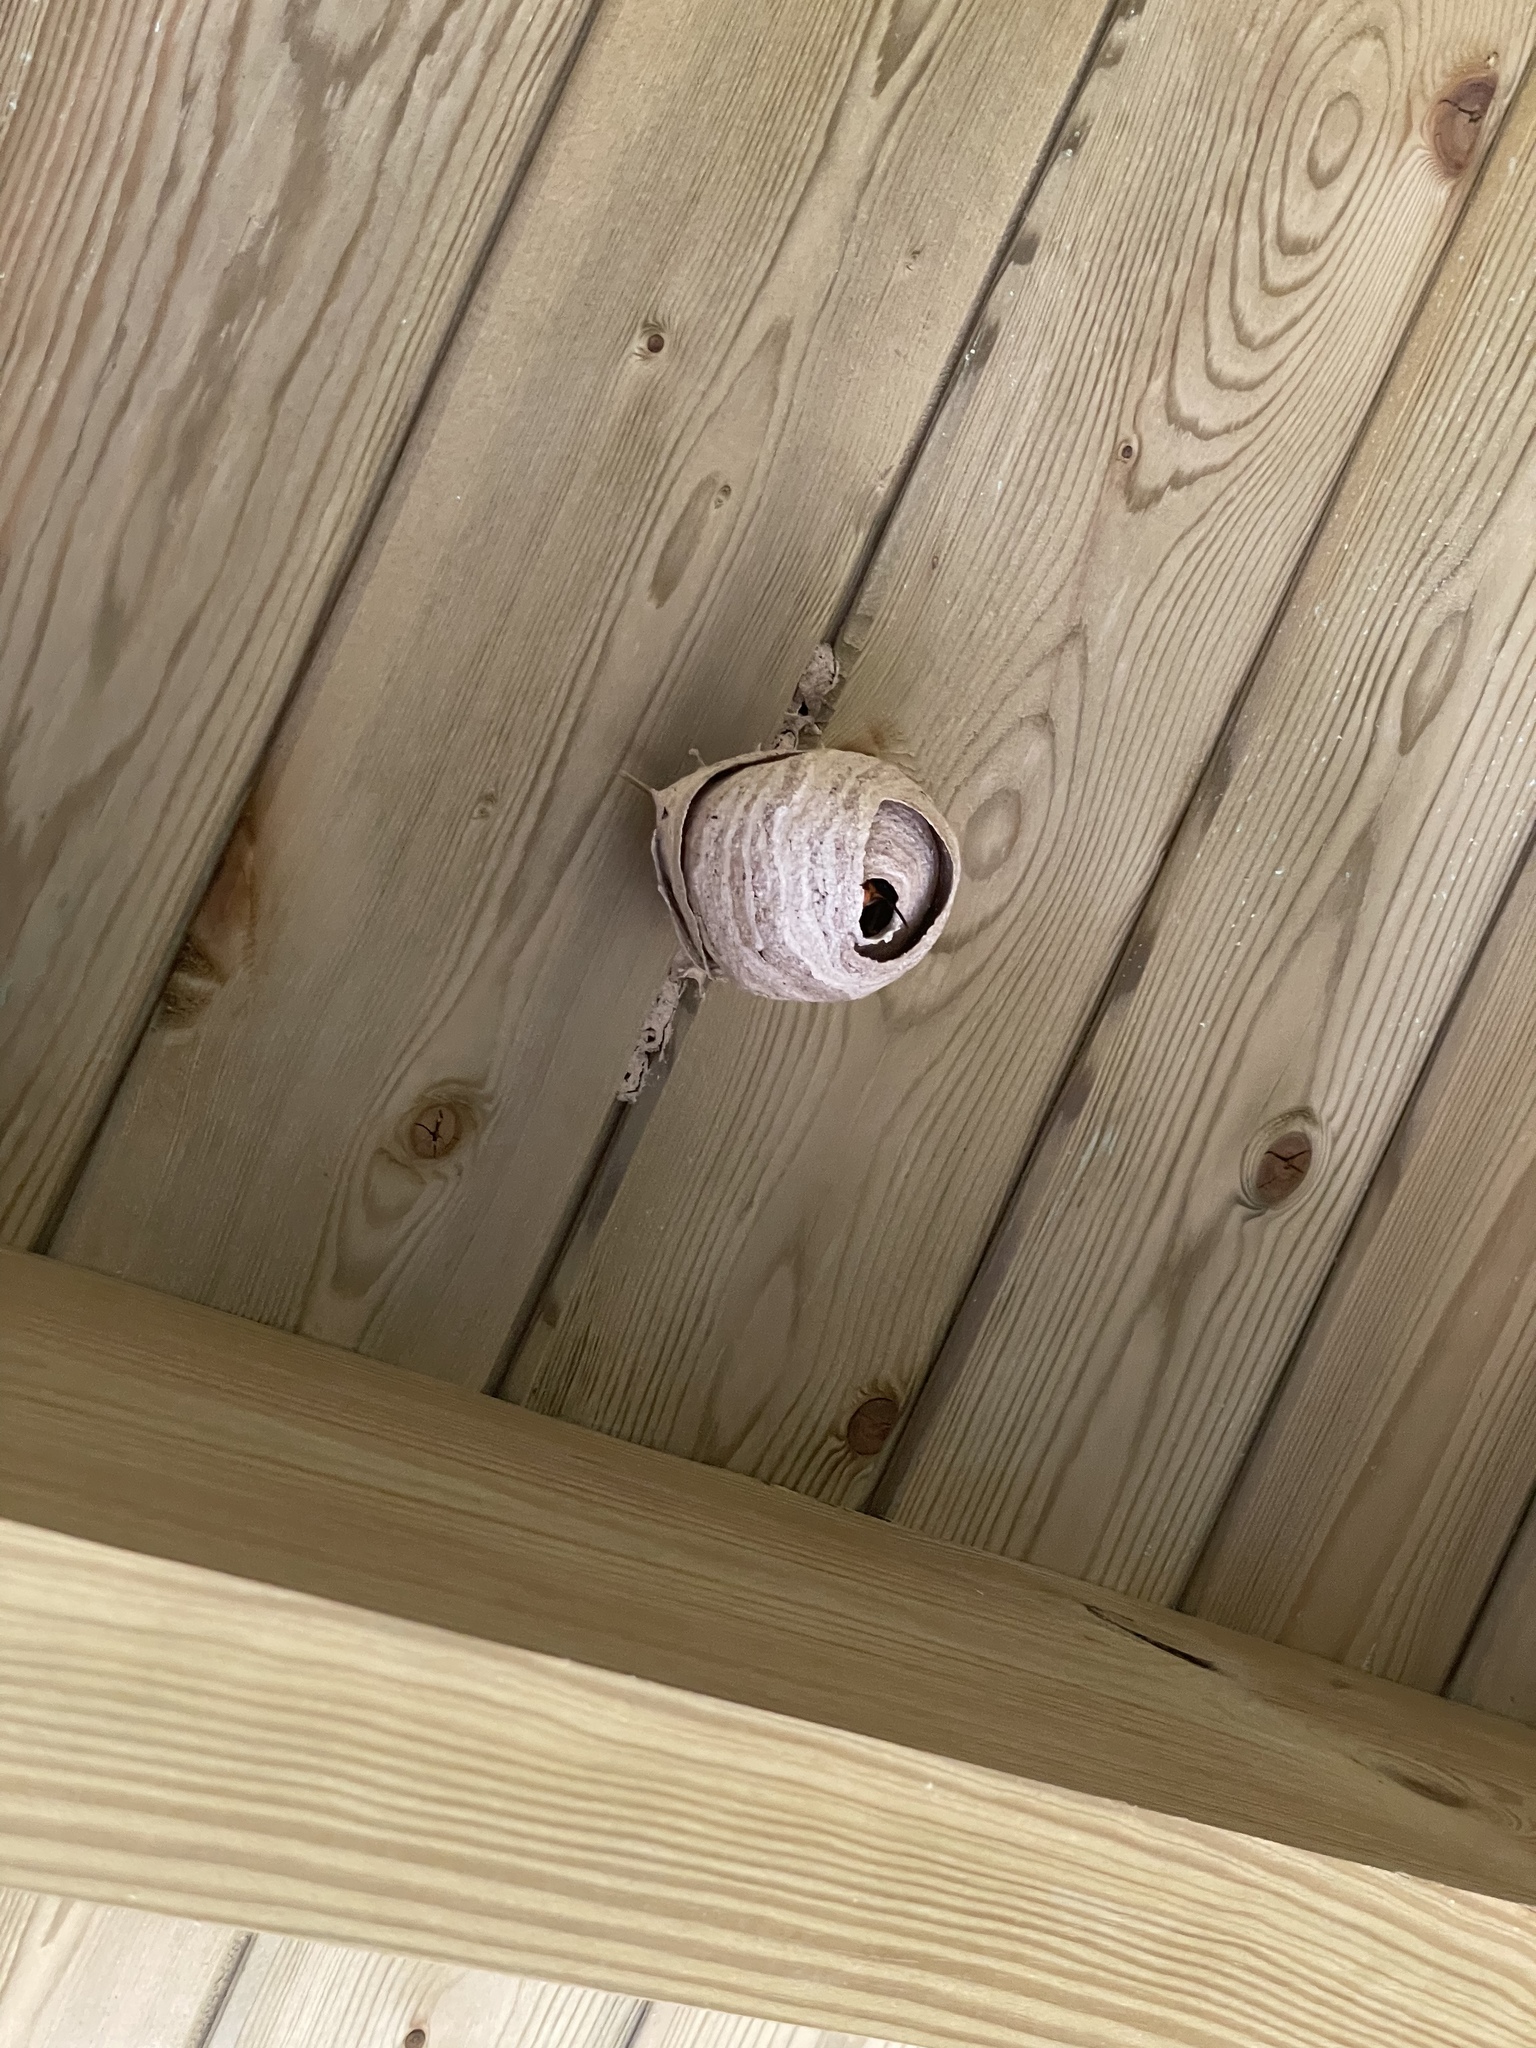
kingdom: Animalia
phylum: Arthropoda
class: Insecta
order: Hymenoptera
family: Vespidae
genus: Vespa
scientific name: Vespa velutina
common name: Asian hornet
